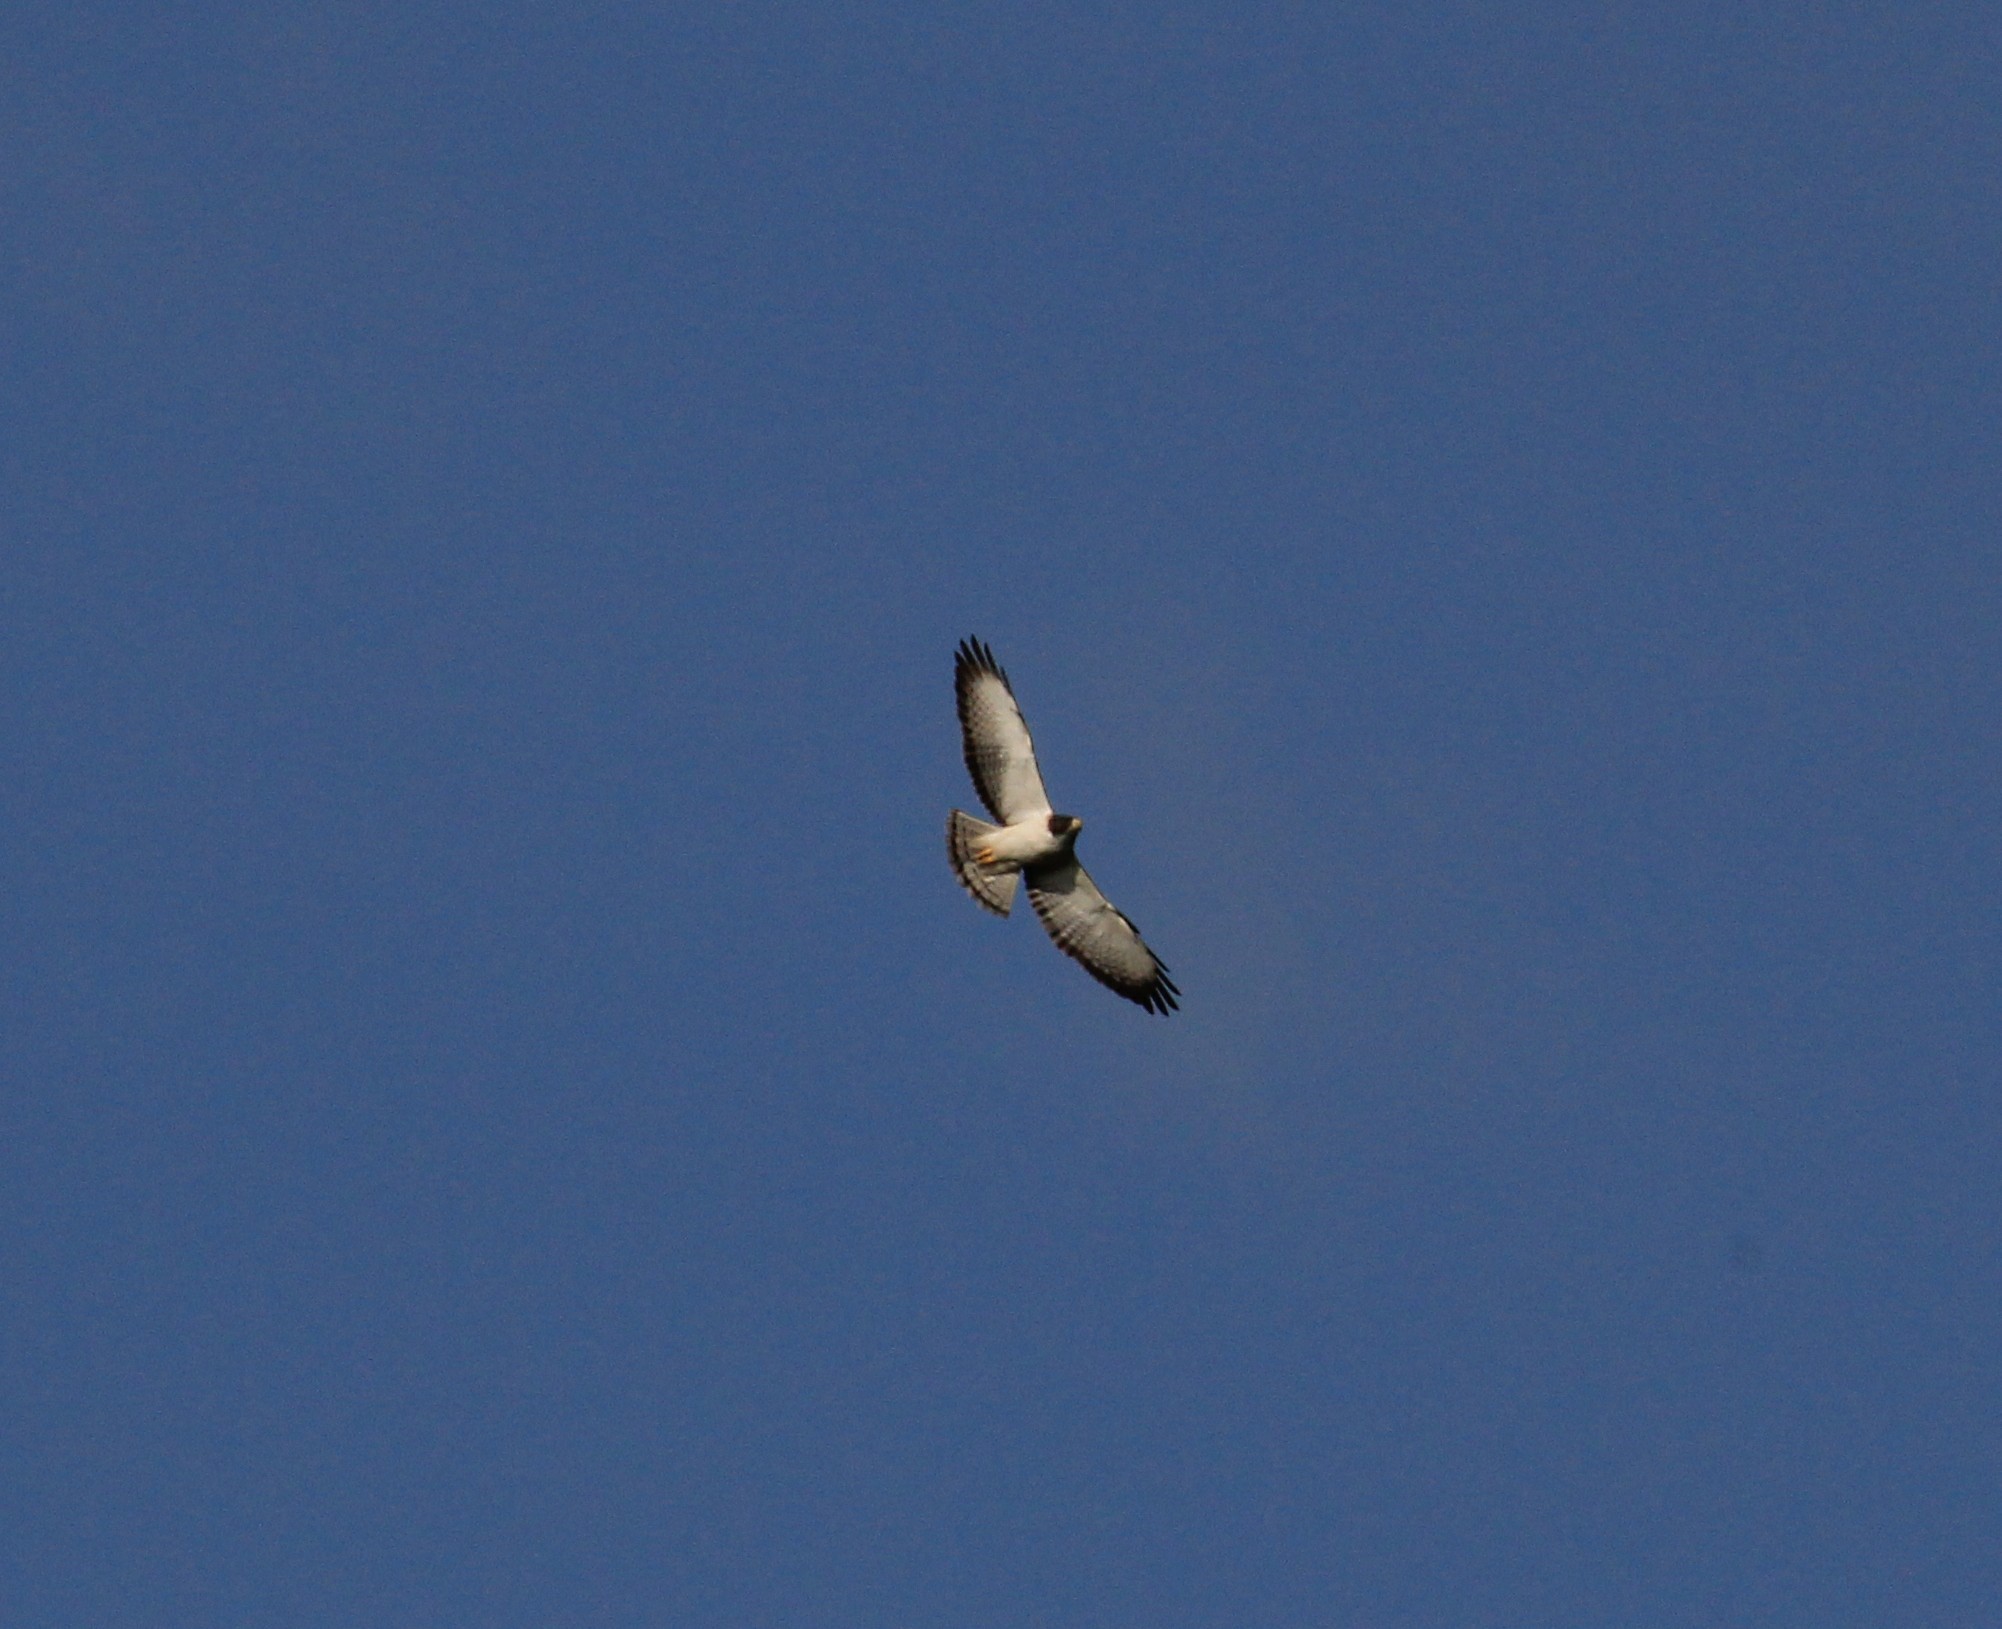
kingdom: Animalia
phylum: Chordata
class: Aves
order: Accipitriformes
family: Accipitridae
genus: Buteo
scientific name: Buteo brachyurus
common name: Short-tailed hawk
